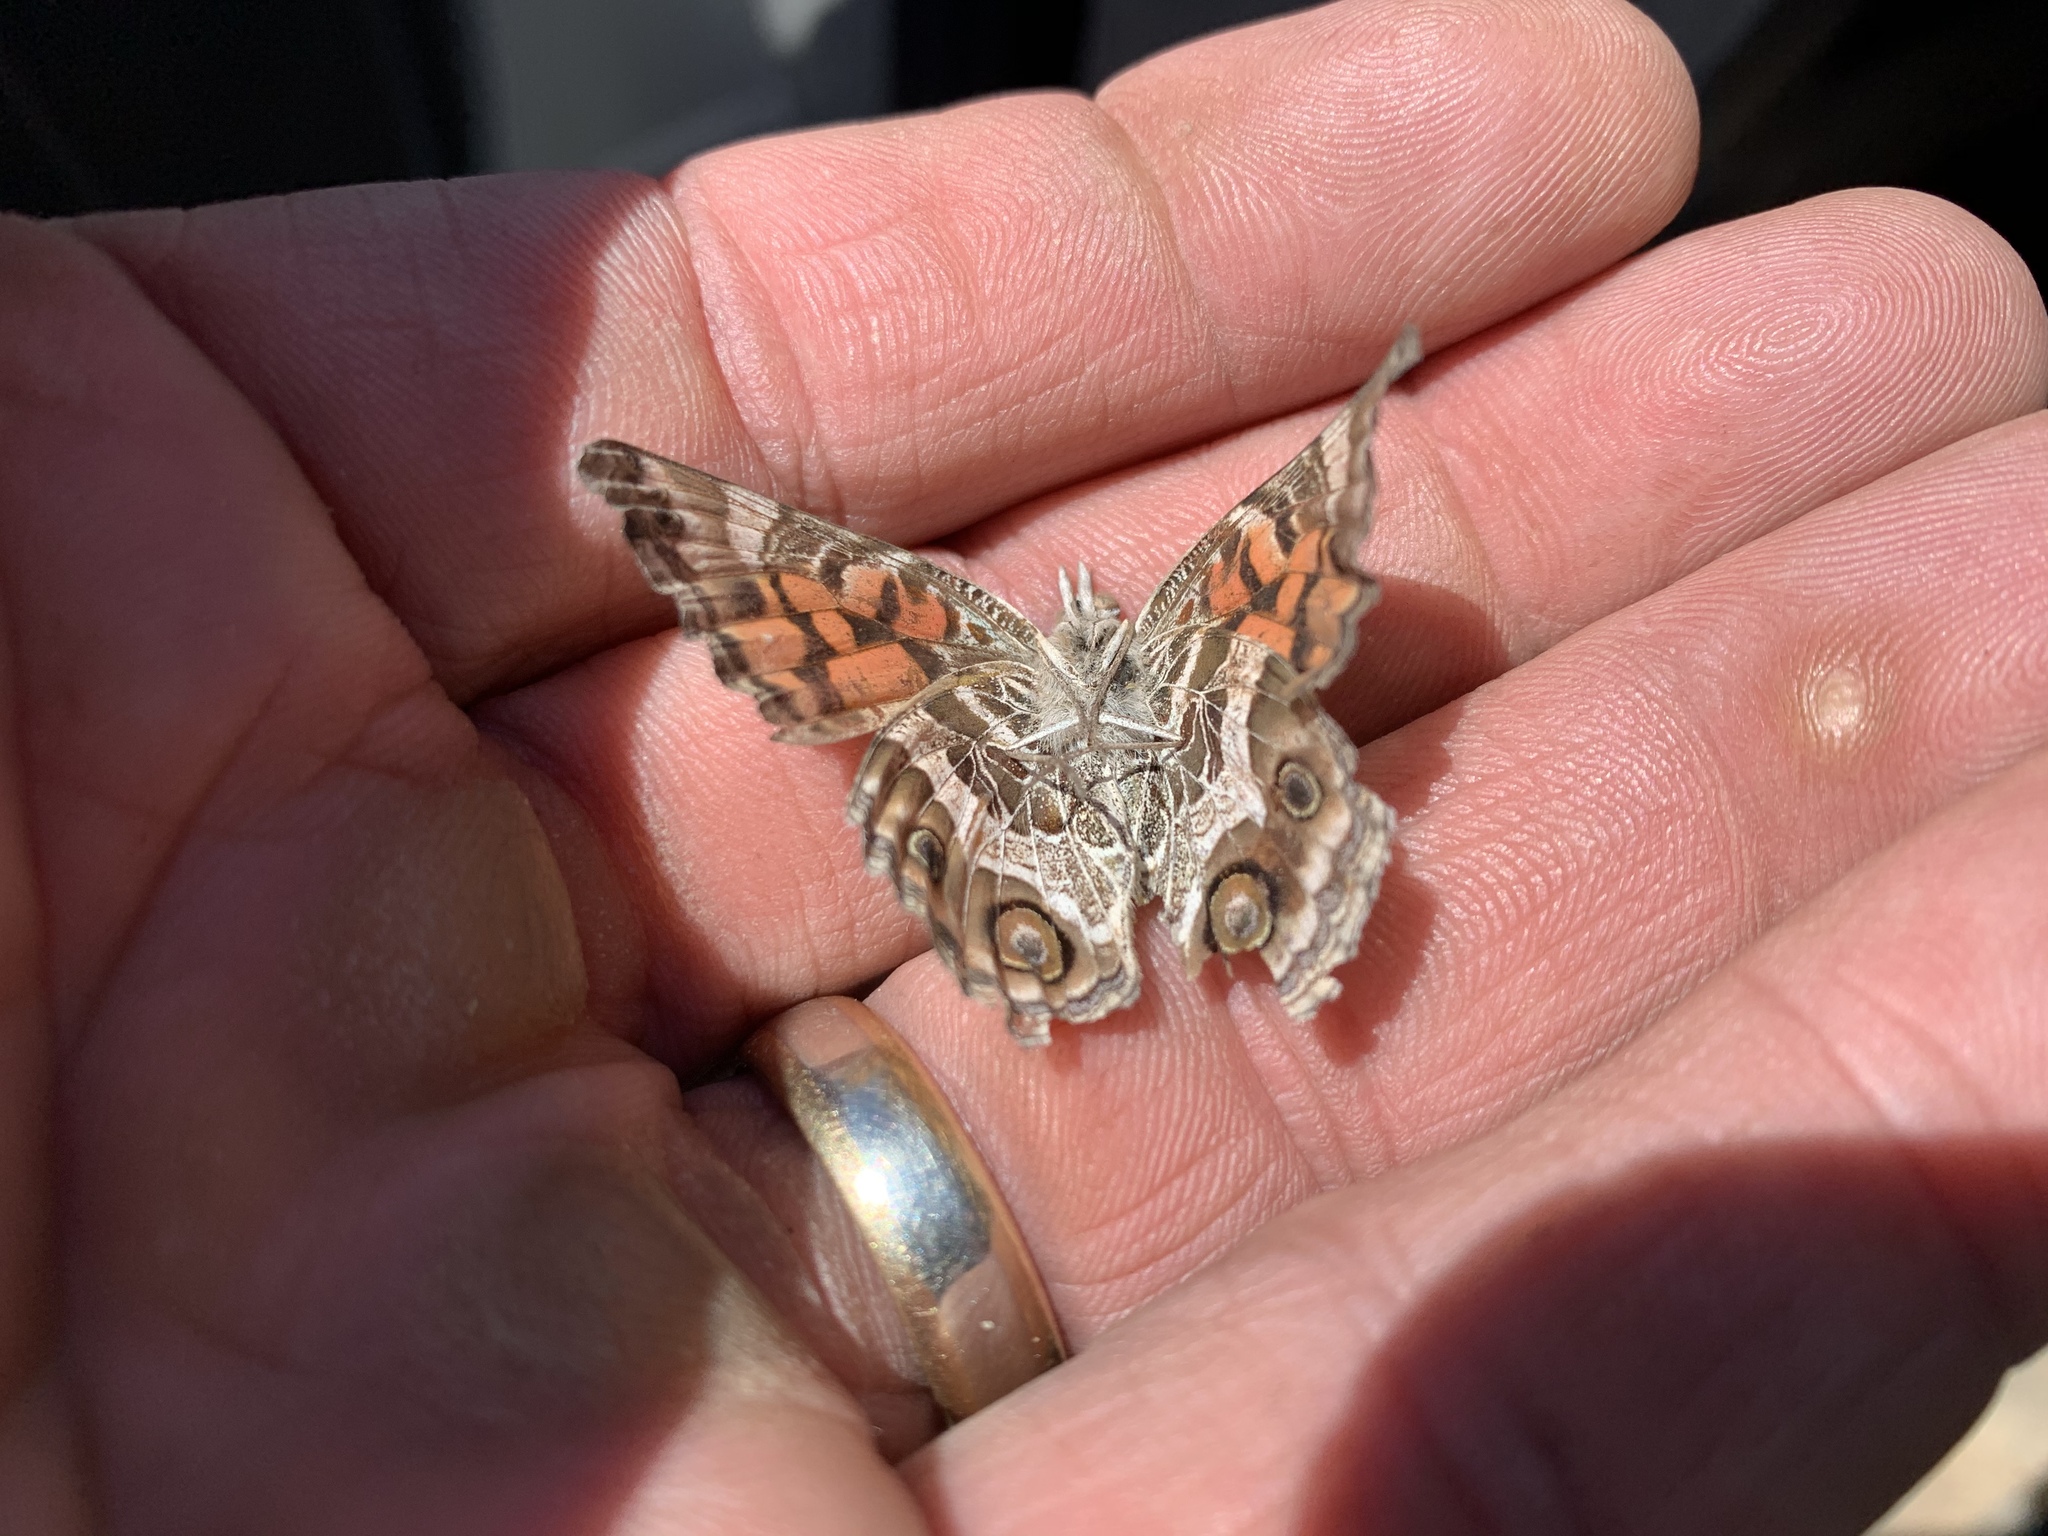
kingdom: Animalia
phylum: Arthropoda
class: Insecta
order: Lepidoptera
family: Nymphalidae
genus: Vanessa
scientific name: Vanessa virginiensis
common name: American lady
